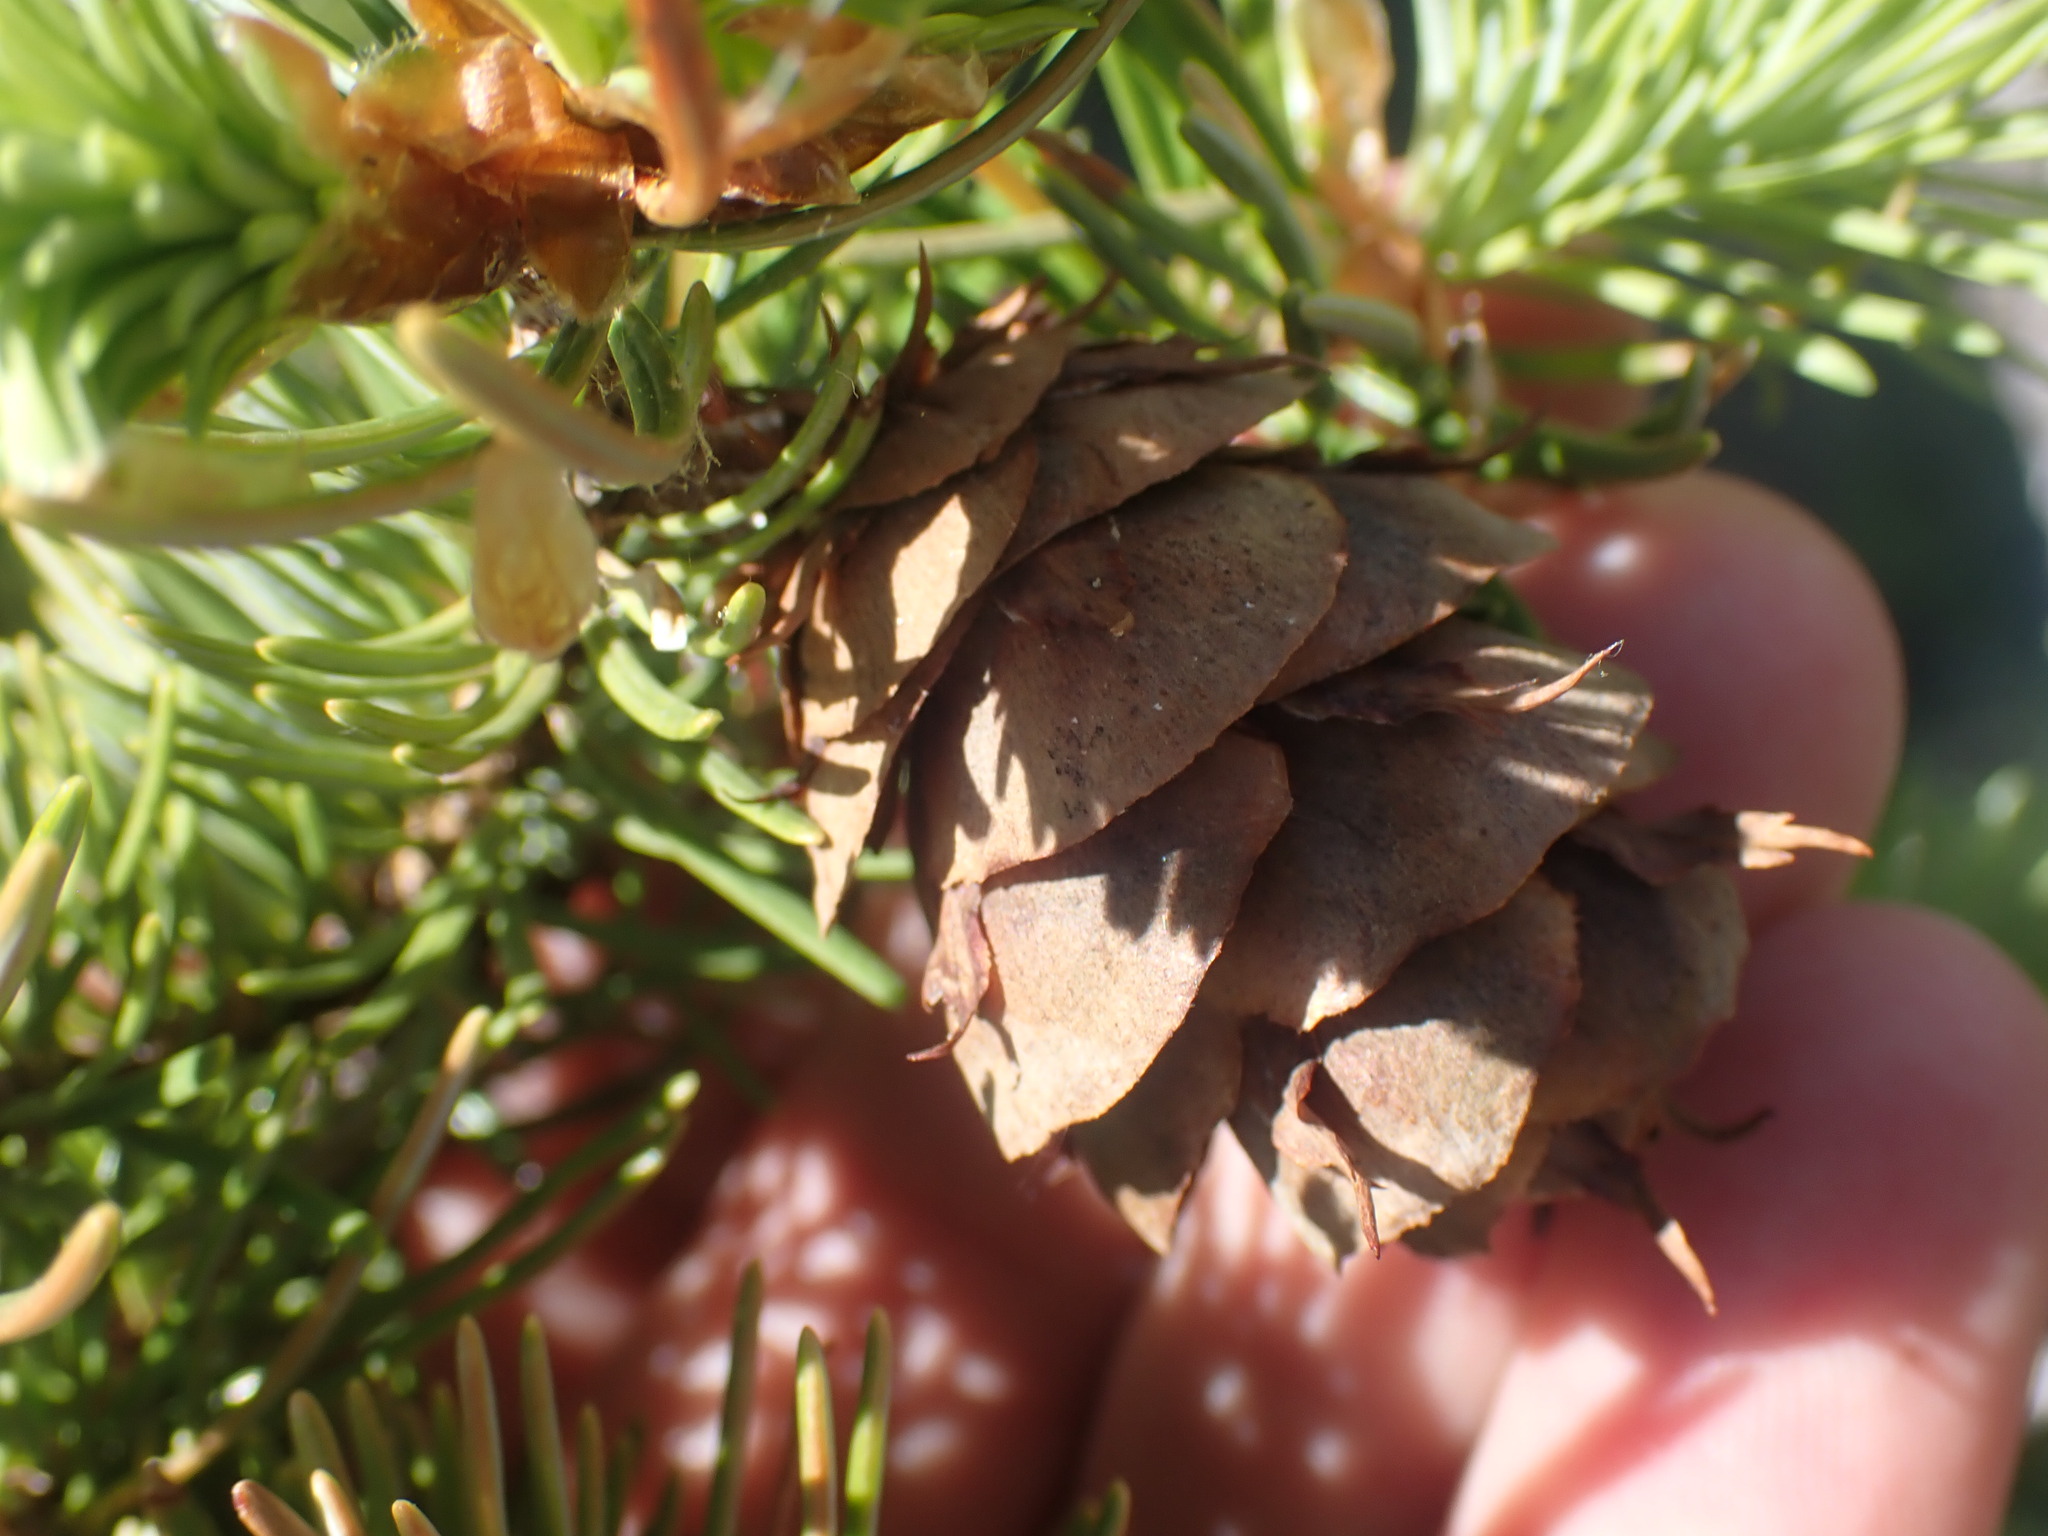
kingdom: Plantae
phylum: Tracheophyta
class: Pinopsida
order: Pinales
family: Pinaceae
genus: Pseudotsuga
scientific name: Pseudotsuga menziesii
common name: Douglas fir
